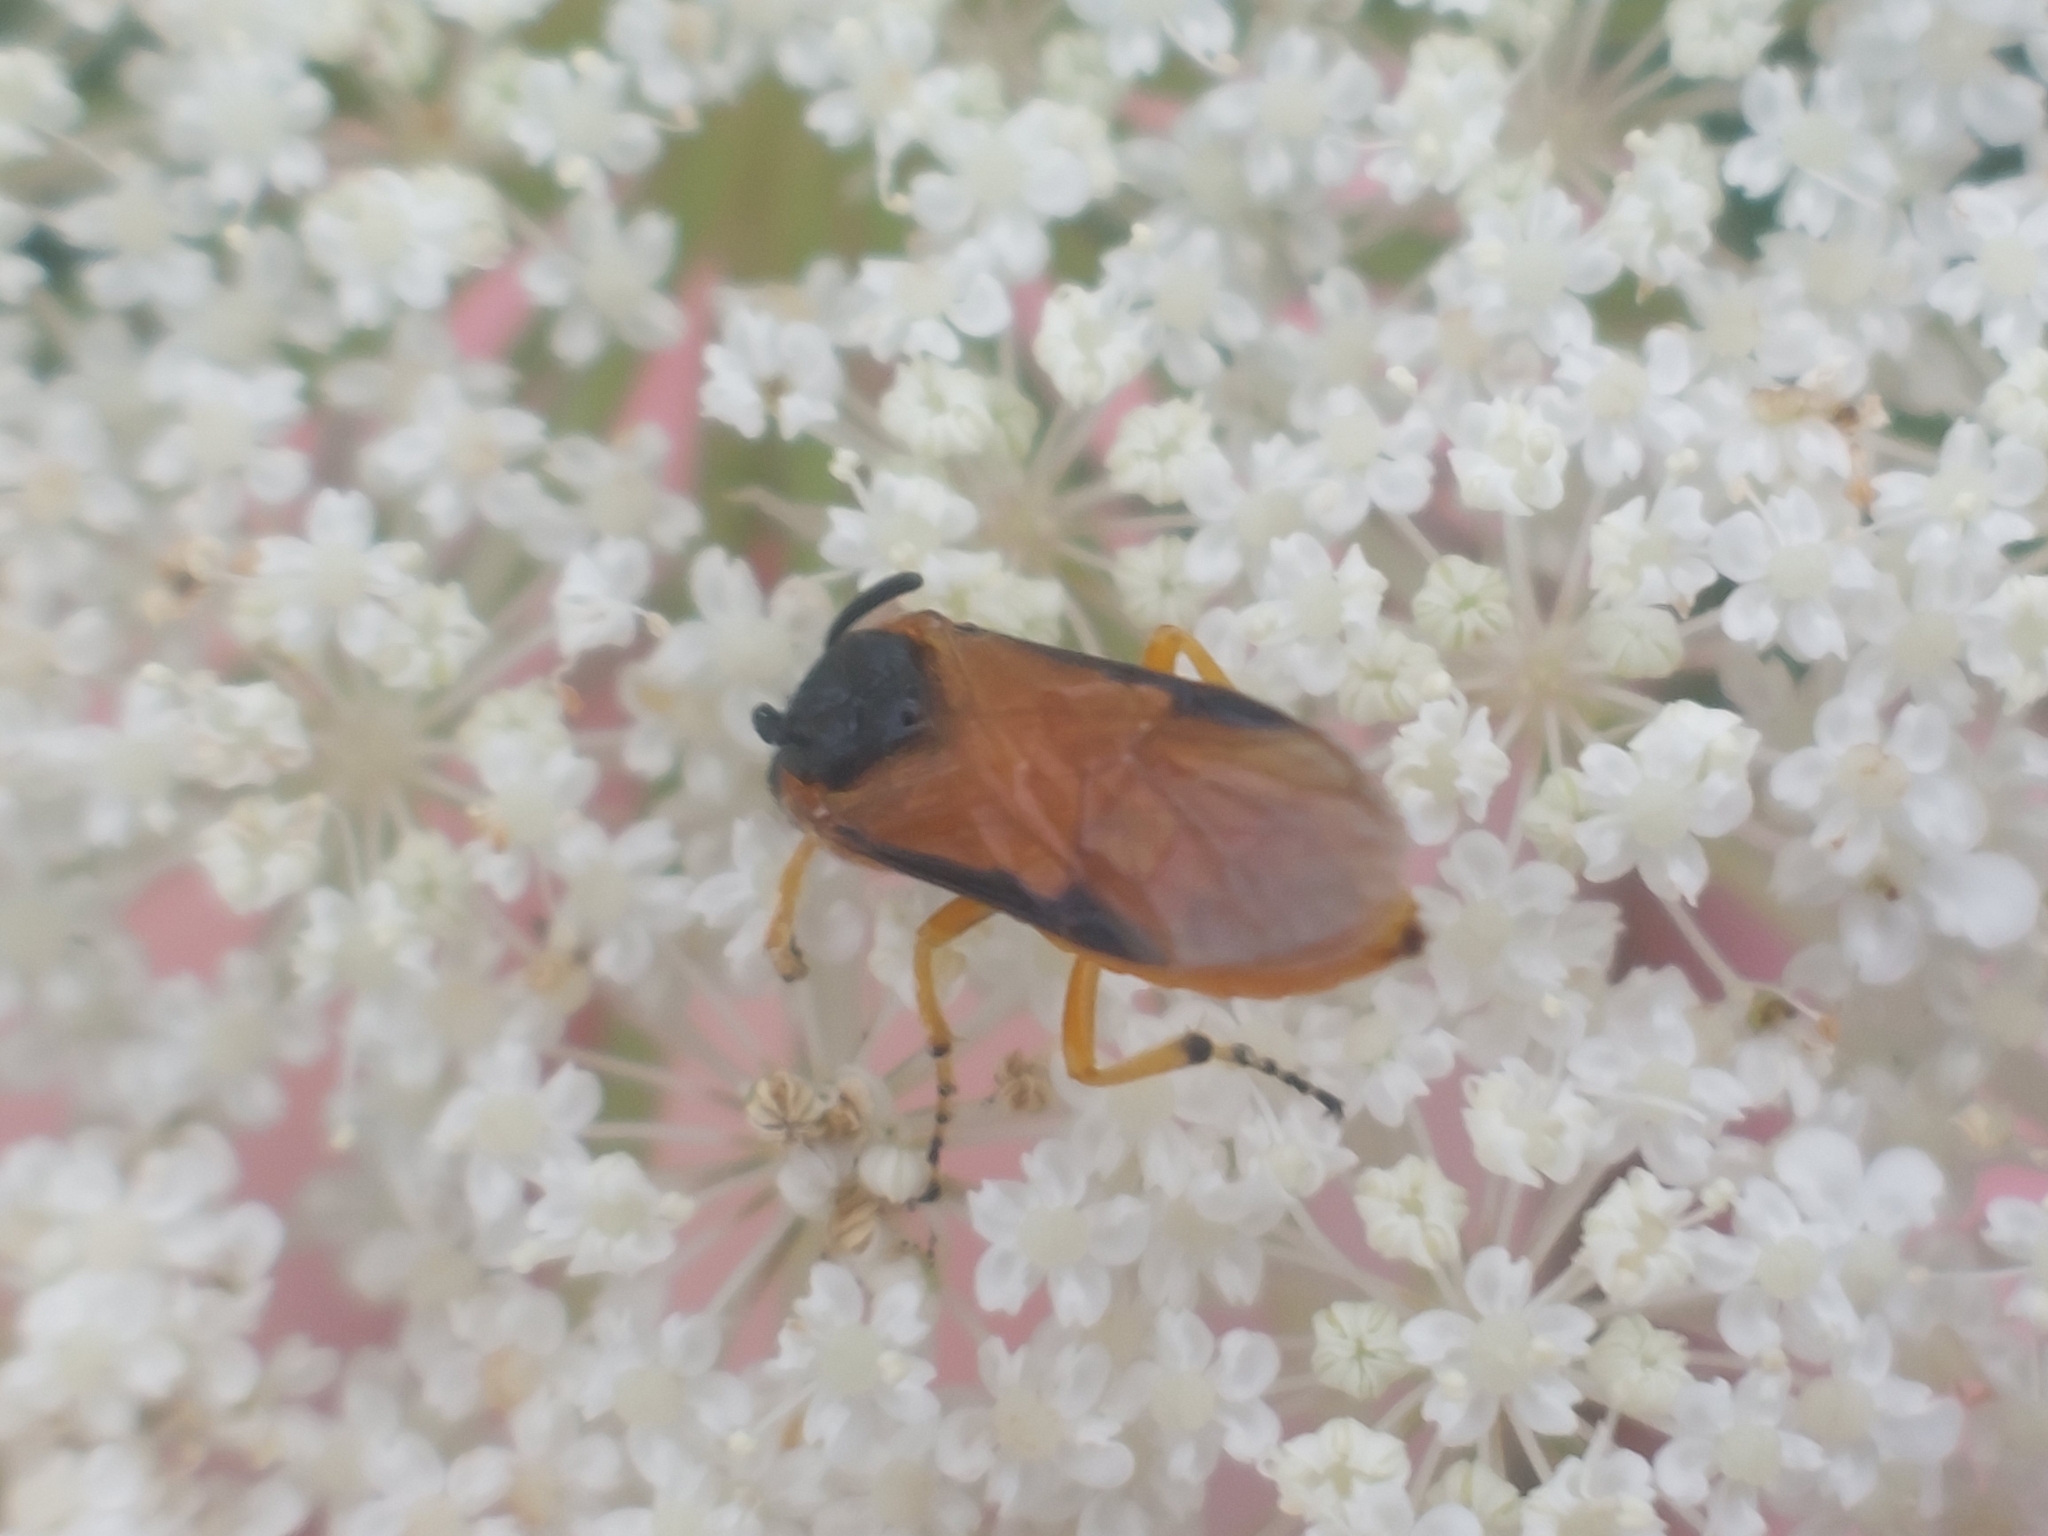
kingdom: Animalia
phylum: Arthropoda
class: Insecta
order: Hymenoptera
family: Argidae
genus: Arge
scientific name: Arge ochropus
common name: Argid sawfly
